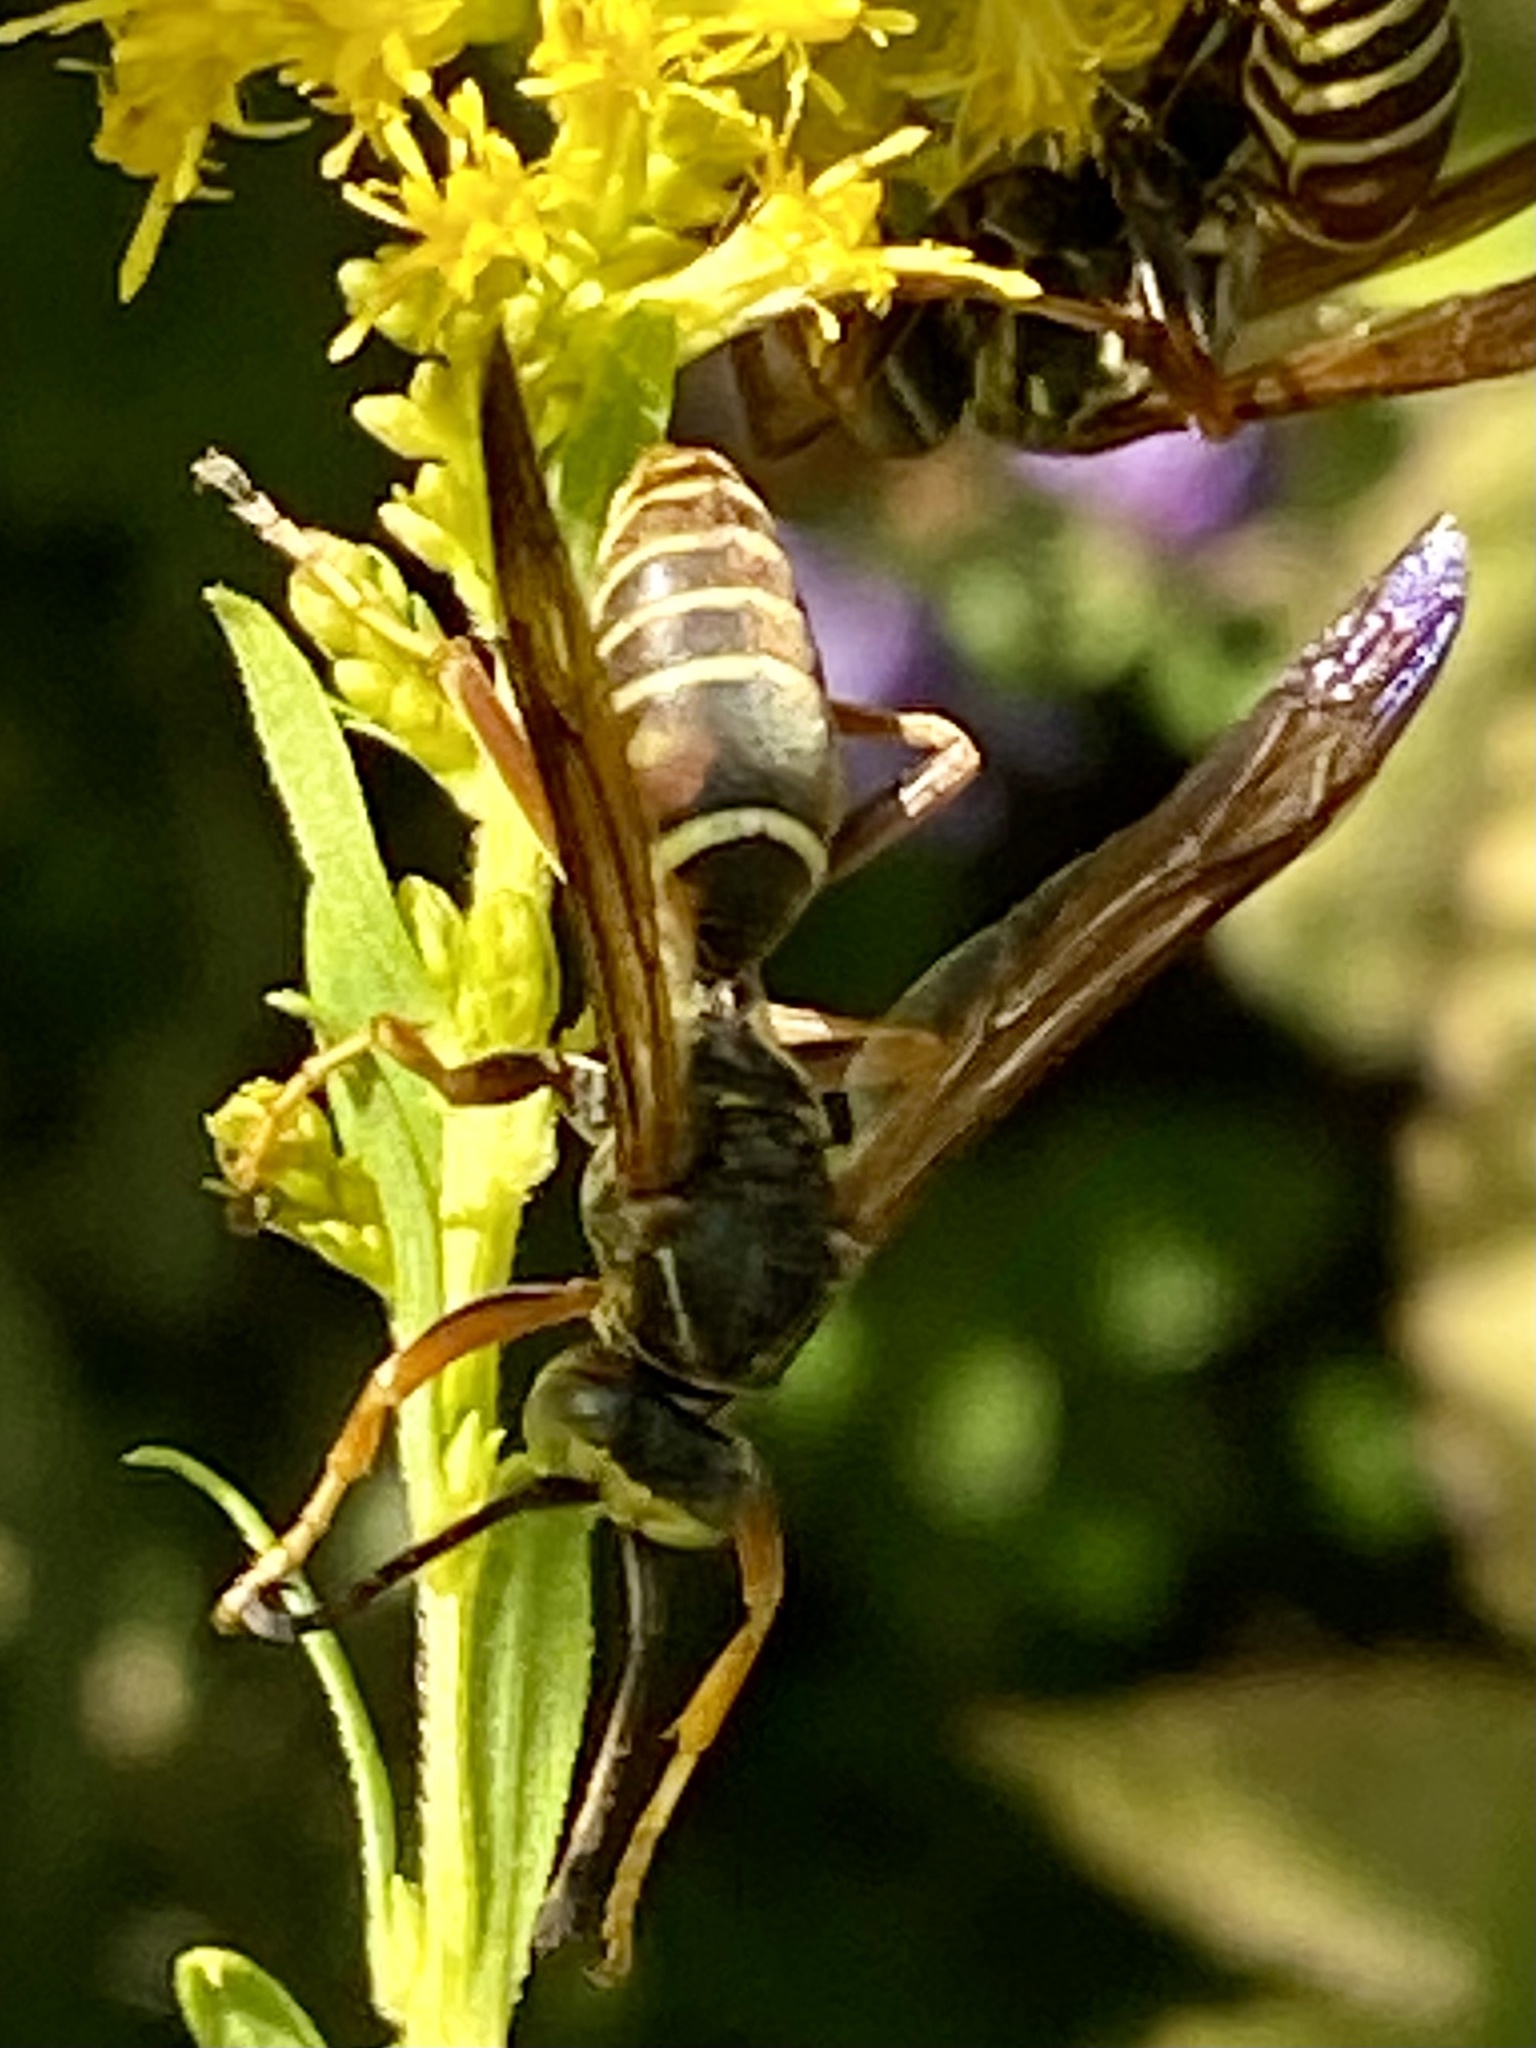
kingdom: Animalia
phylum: Arthropoda
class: Insecta
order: Hymenoptera
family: Eumenidae
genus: Polistes
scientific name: Polistes fuscatus
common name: Dark paper wasp
